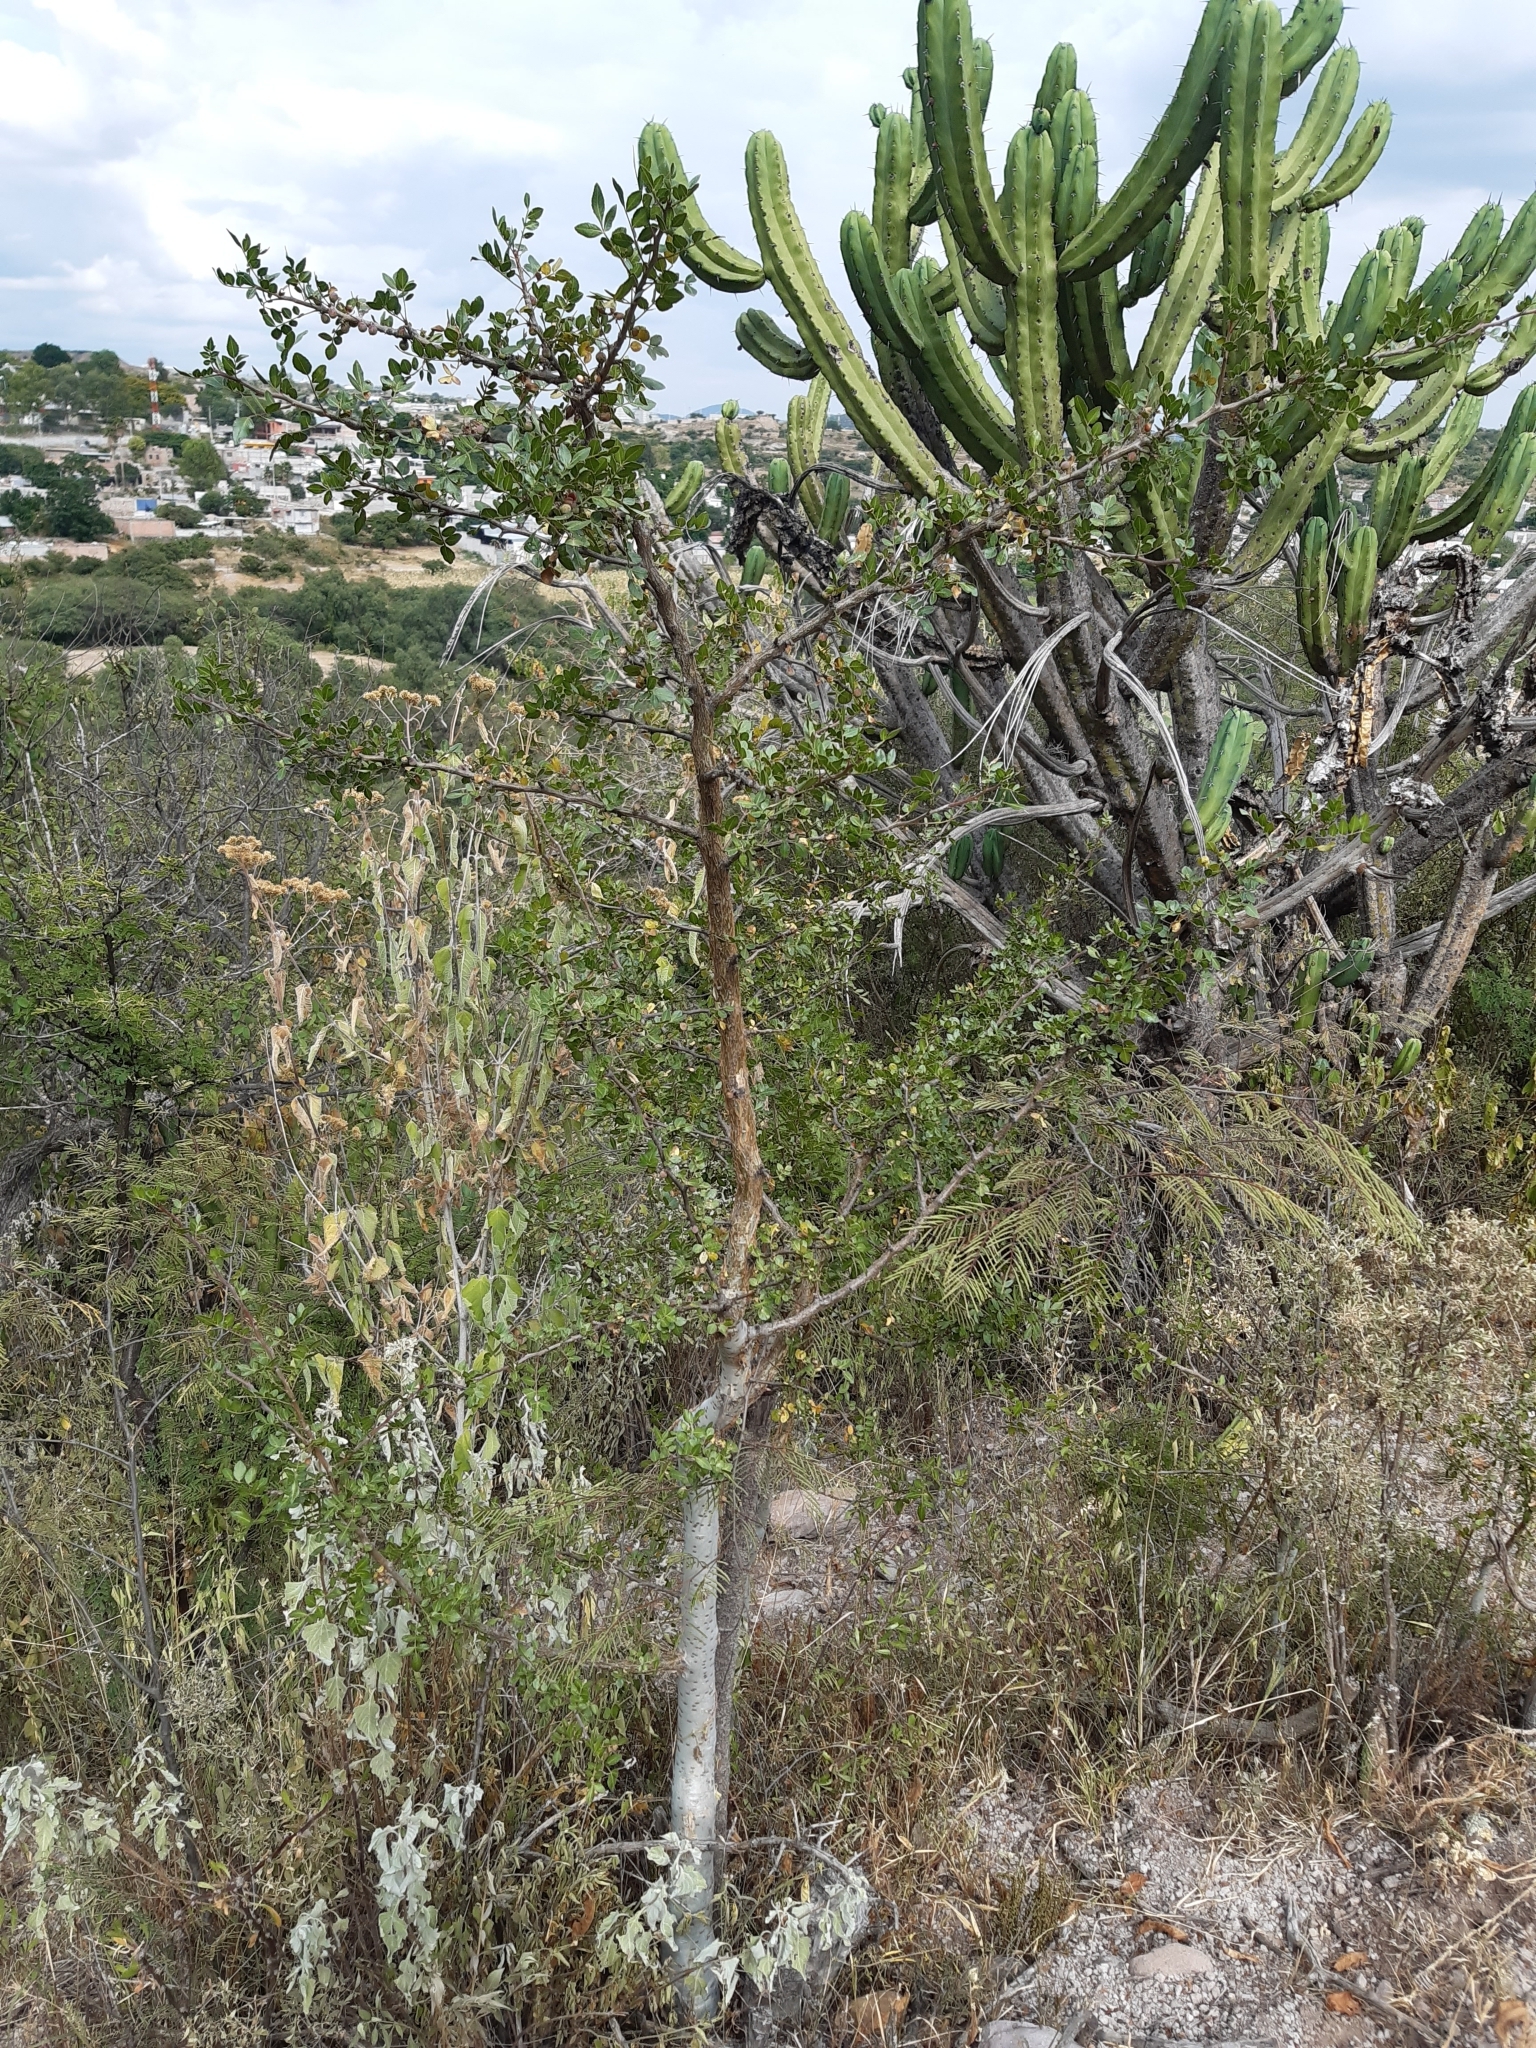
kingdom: Plantae
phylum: Tracheophyta
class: Magnoliopsida
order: Sapindales
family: Burseraceae
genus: Bursera
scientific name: Bursera fagaroides
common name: Elephant tree
